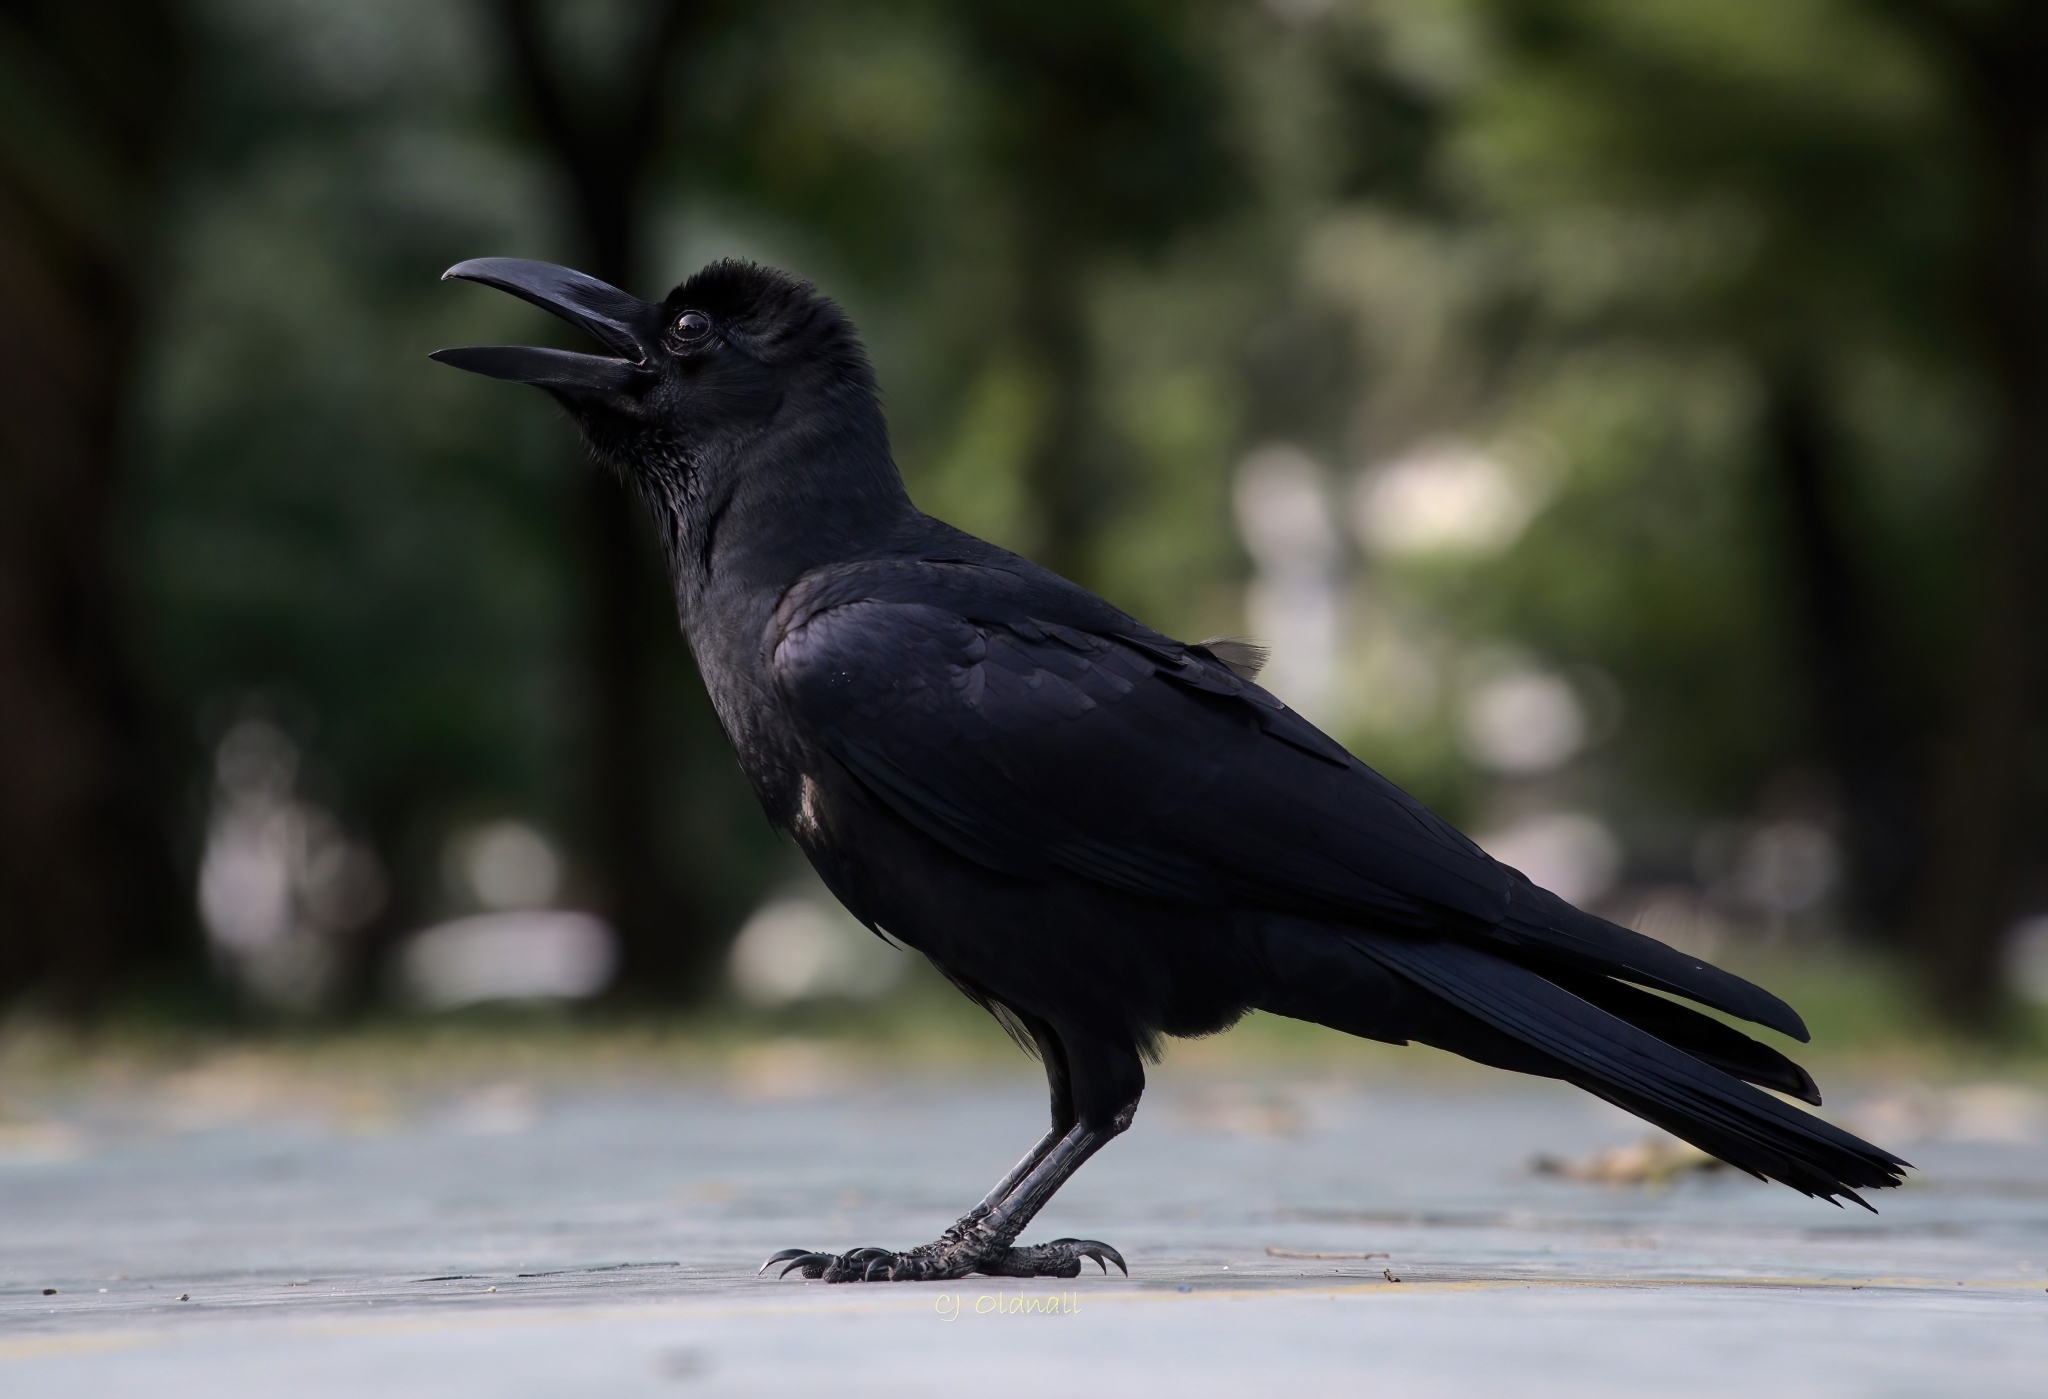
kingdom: Animalia
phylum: Chordata
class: Aves
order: Passeriformes
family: Corvidae
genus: Corvus
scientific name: Corvus macrorhynchos
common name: Large-billed crow
